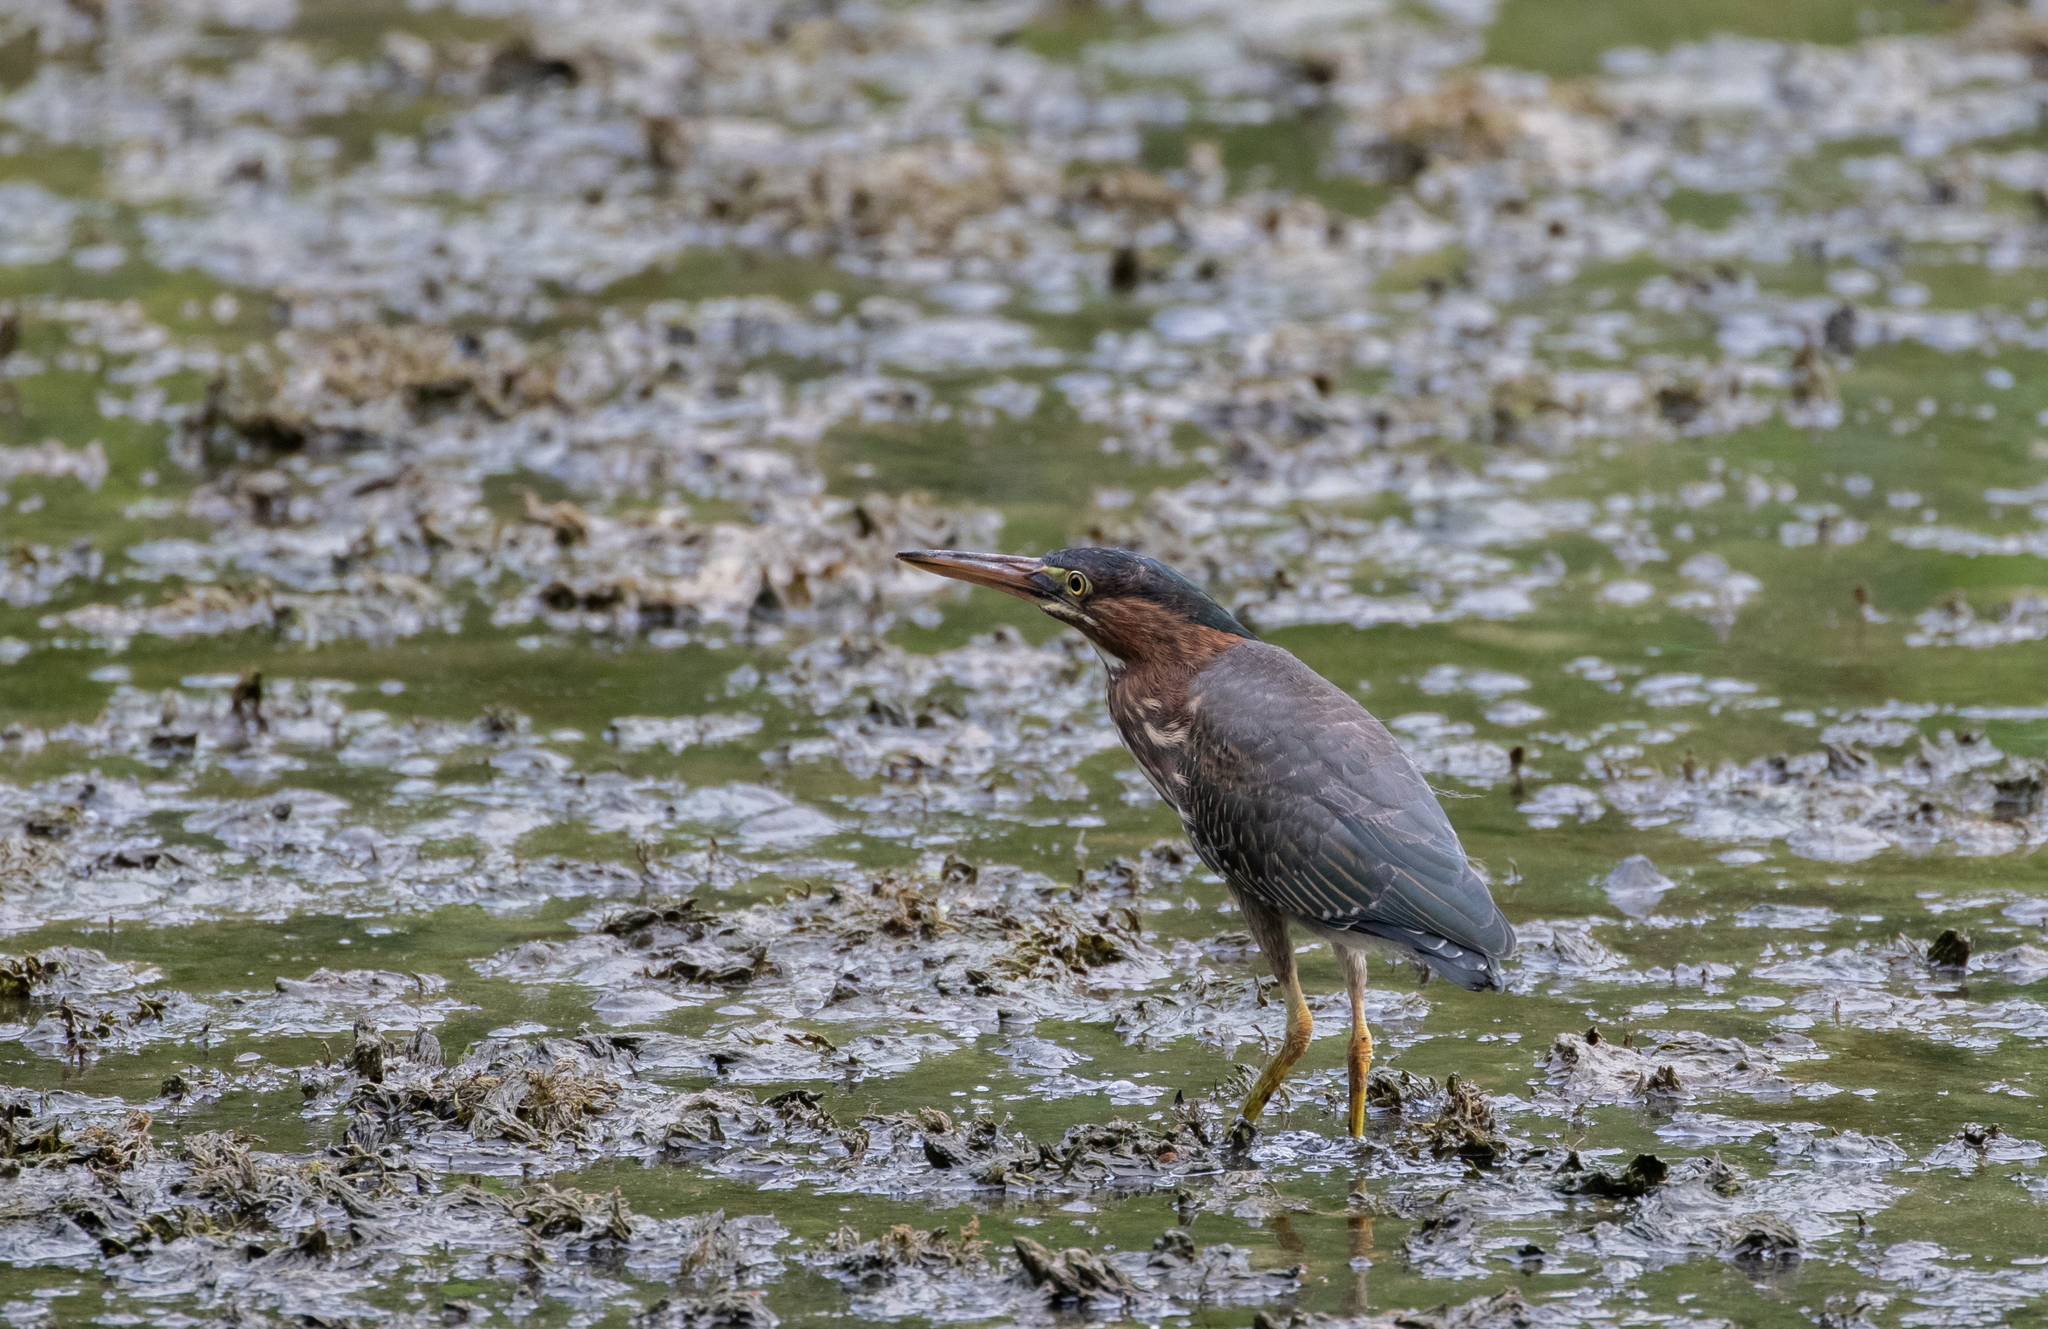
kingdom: Animalia
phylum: Chordata
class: Aves
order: Pelecaniformes
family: Ardeidae
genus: Butorides
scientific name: Butorides virescens
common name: Green heron
